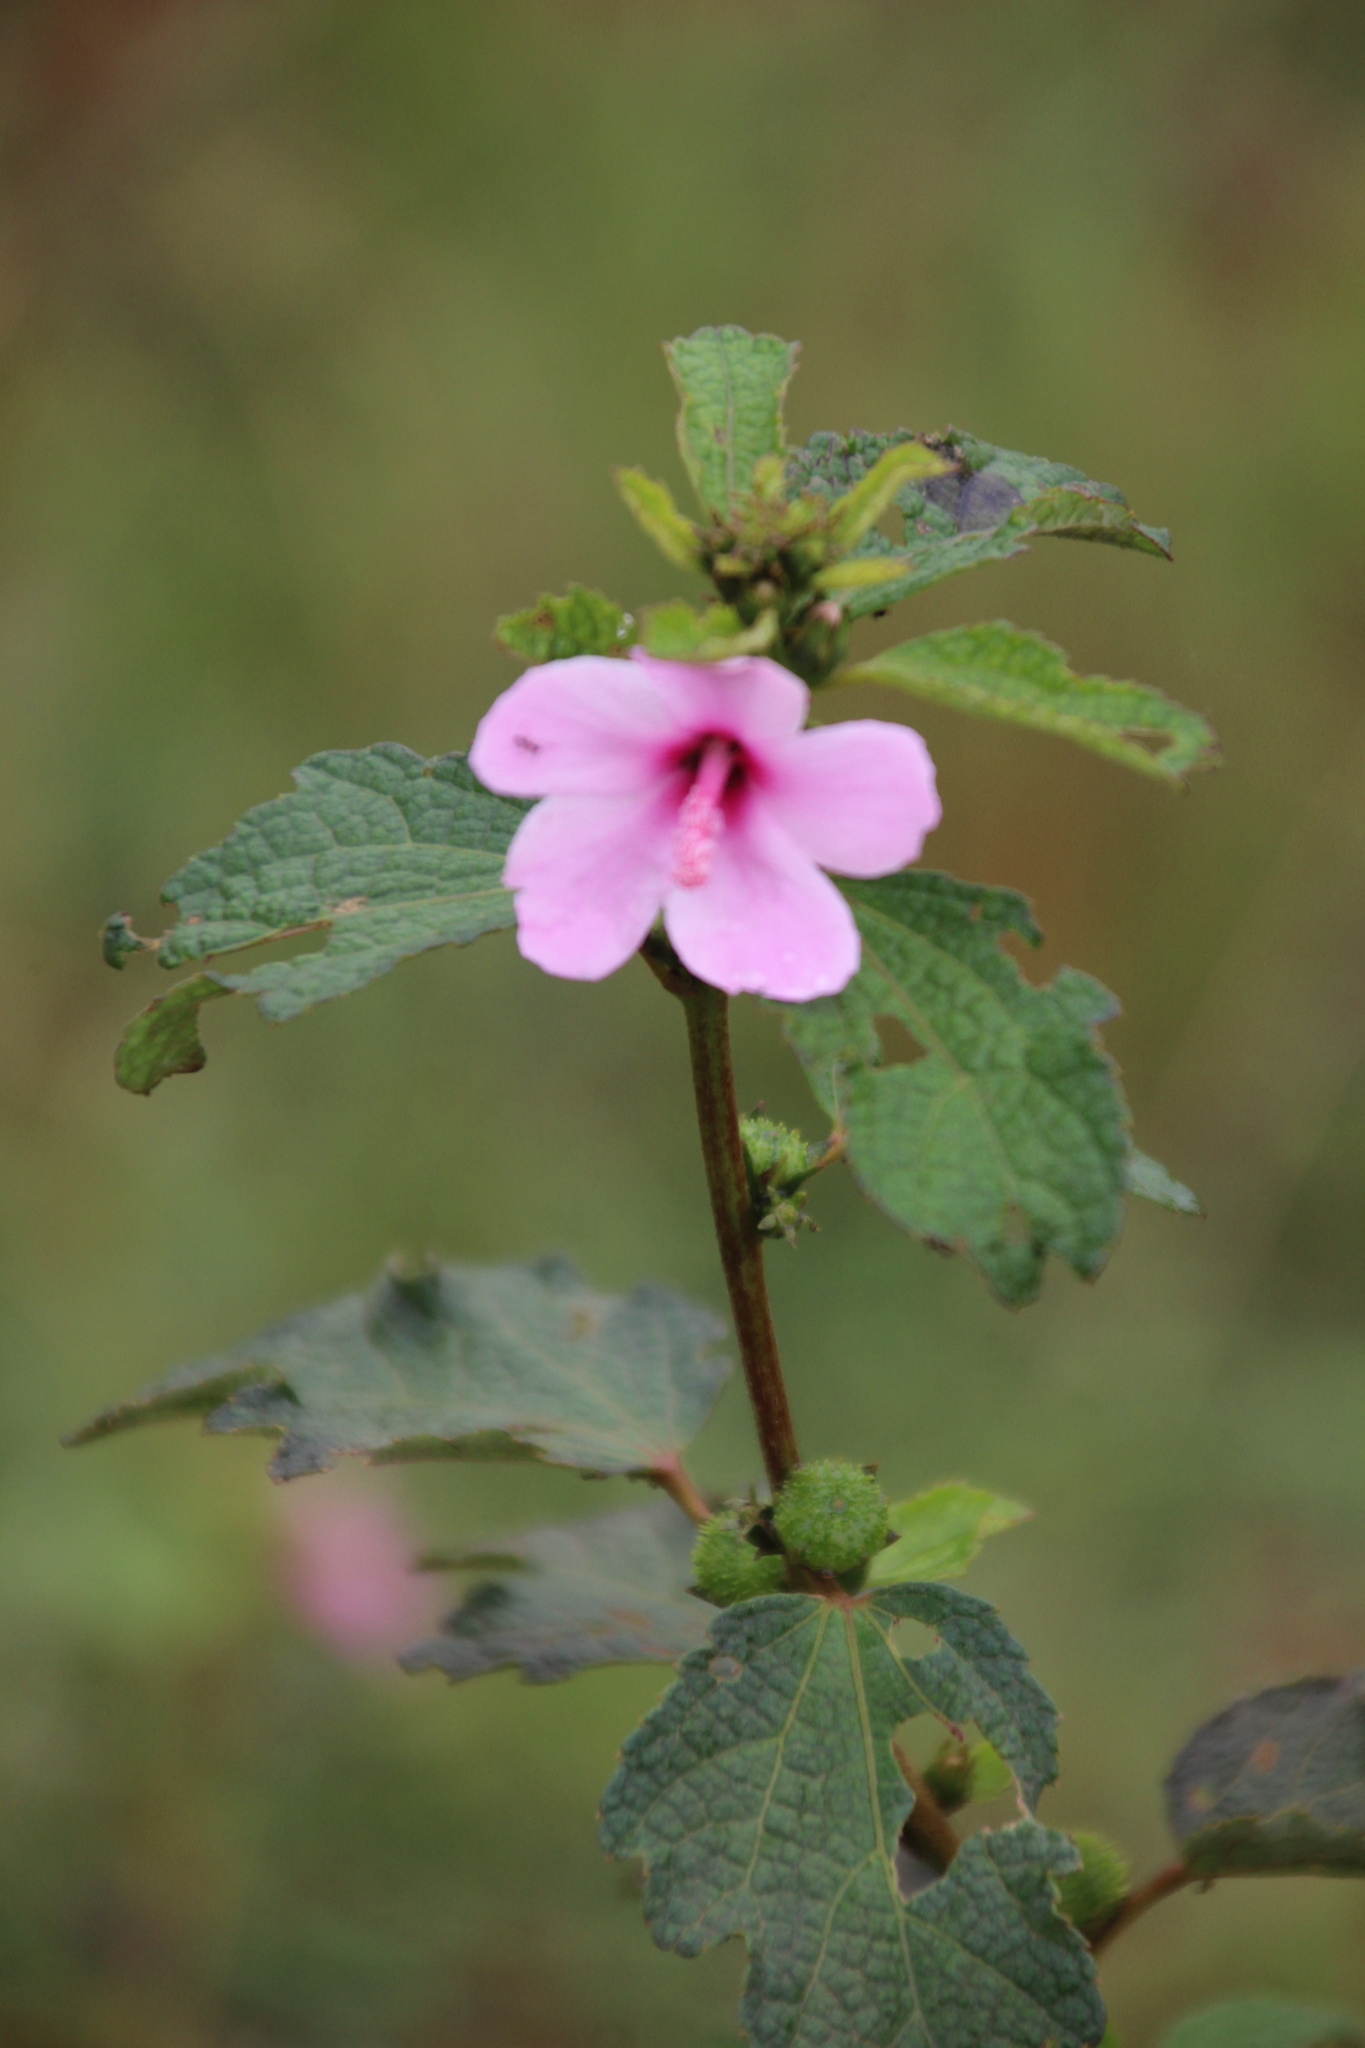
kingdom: Plantae
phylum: Tracheophyta
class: Magnoliopsida
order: Malvales
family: Malvaceae
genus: Urena
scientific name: Urena lobata
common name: Caesarweed
